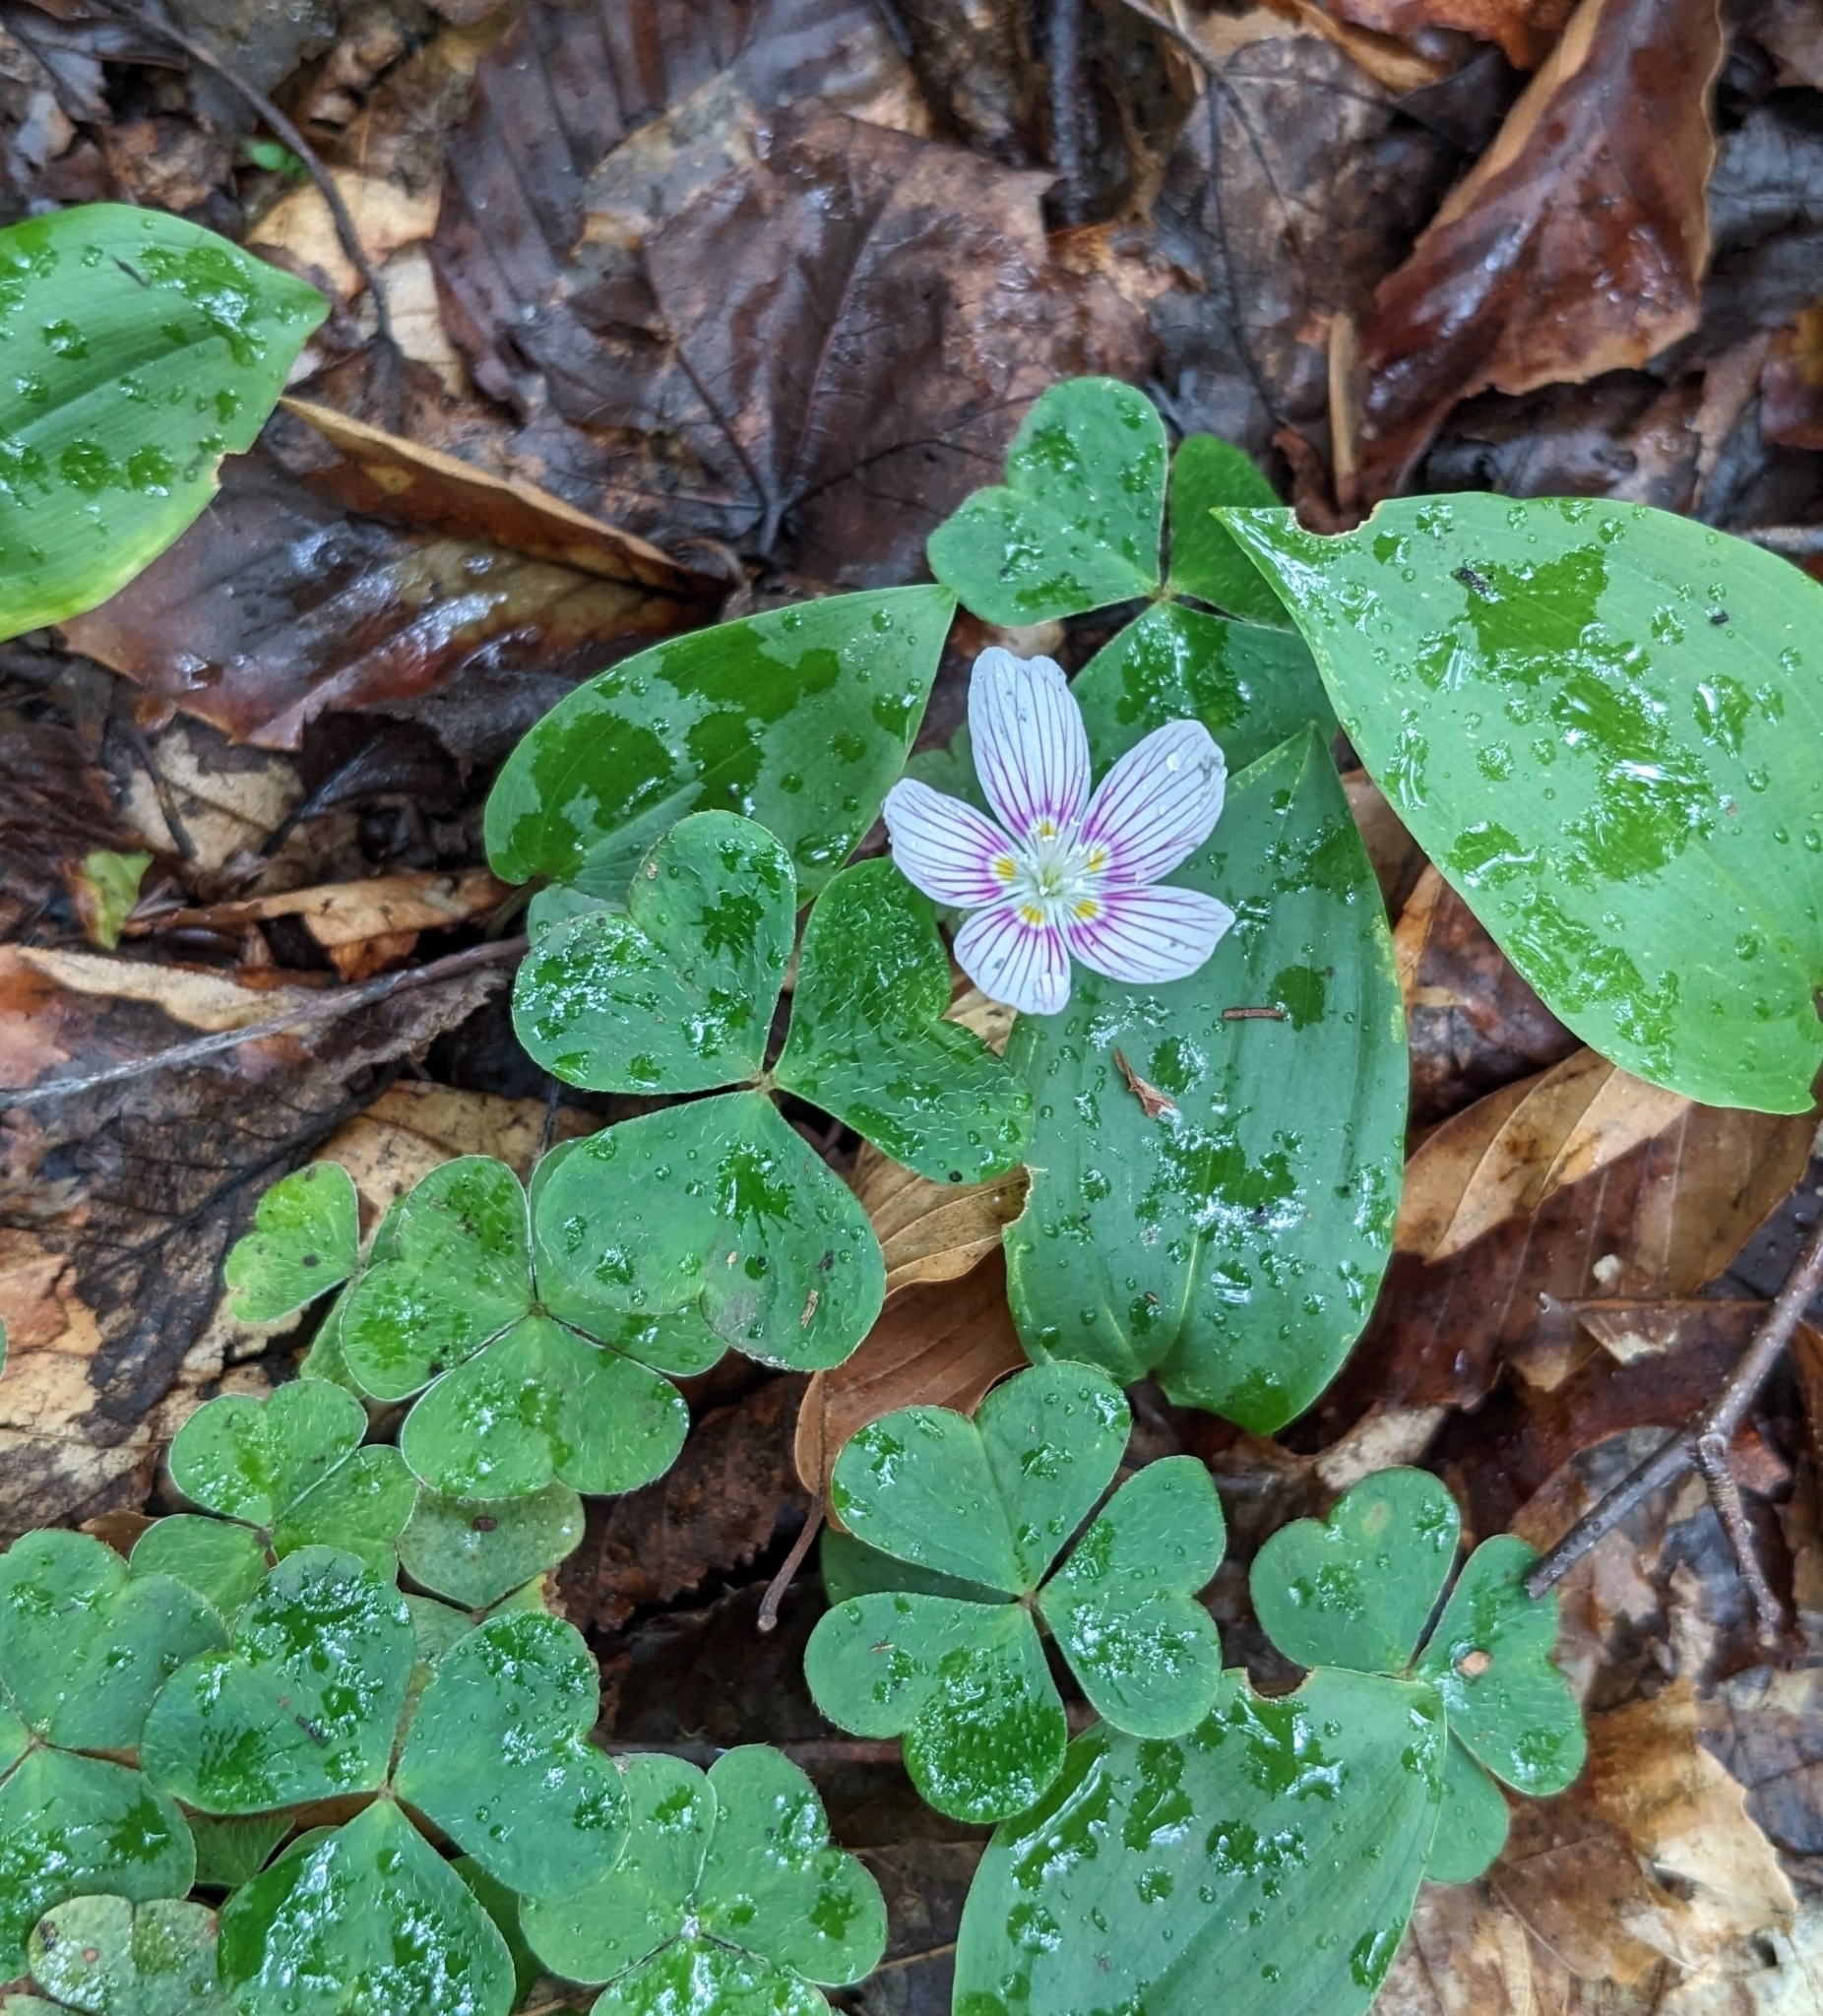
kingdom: Plantae
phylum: Tracheophyta
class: Magnoliopsida
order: Oxalidales
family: Oxalidaceae
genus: Oxalis
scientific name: Oxalis montana
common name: American wood-sorrel
